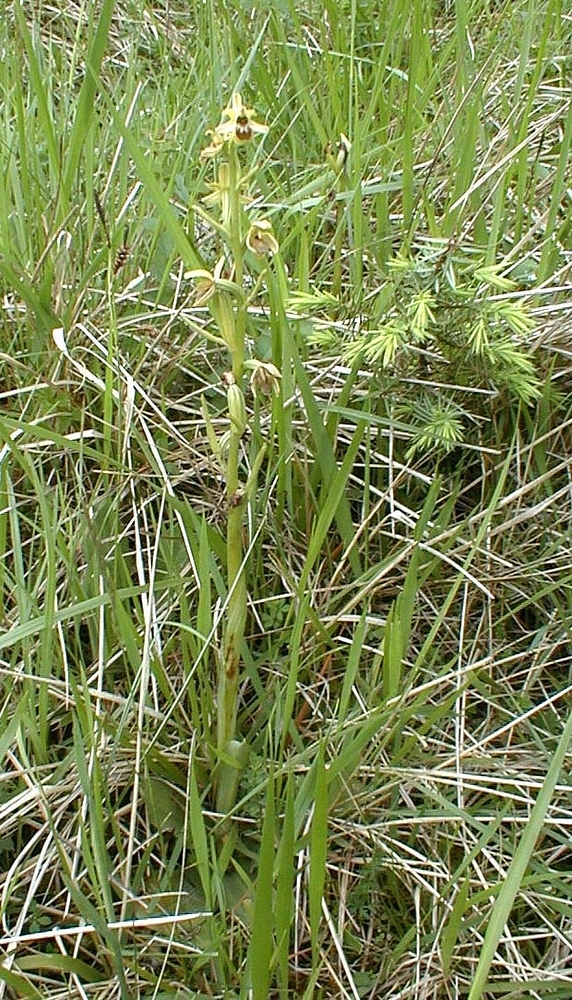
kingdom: Plantae
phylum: Tracheophyta
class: Liliopsida
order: Asparagales
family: Orchidaceae
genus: Ophrys
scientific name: Ophrys araneola
